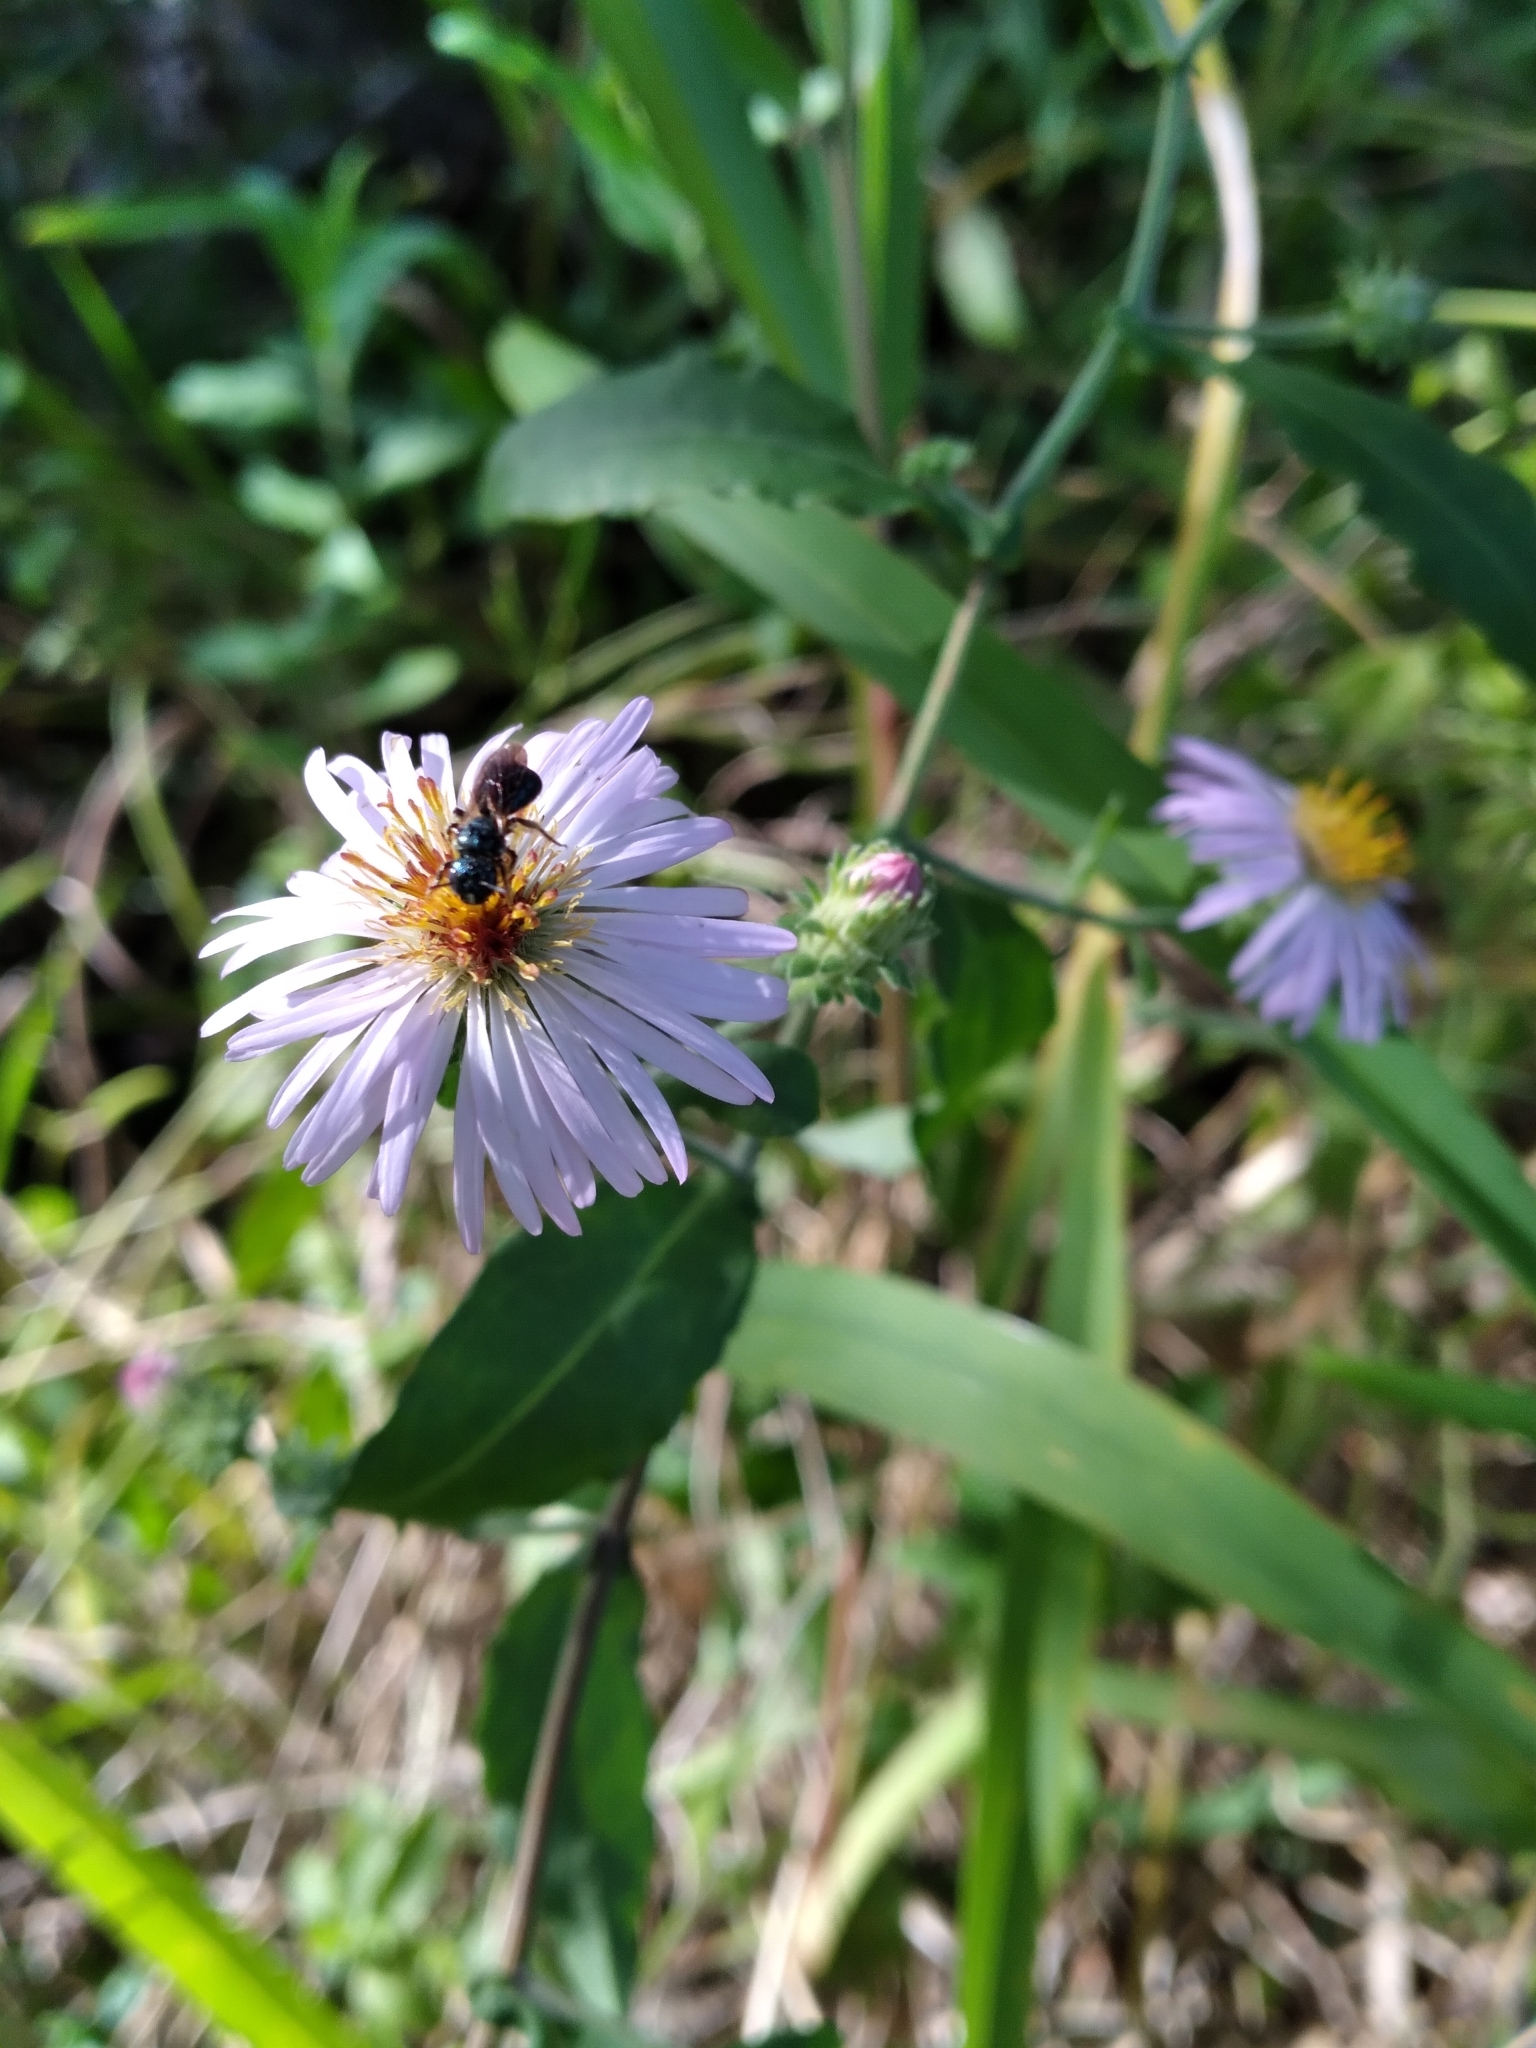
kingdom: Plantae
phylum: Tracheophyta
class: Magnoliopsida
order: Asterales
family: Asteraceae
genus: Ampelaster
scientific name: Ampelaster carolinianus
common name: Climbing aster
